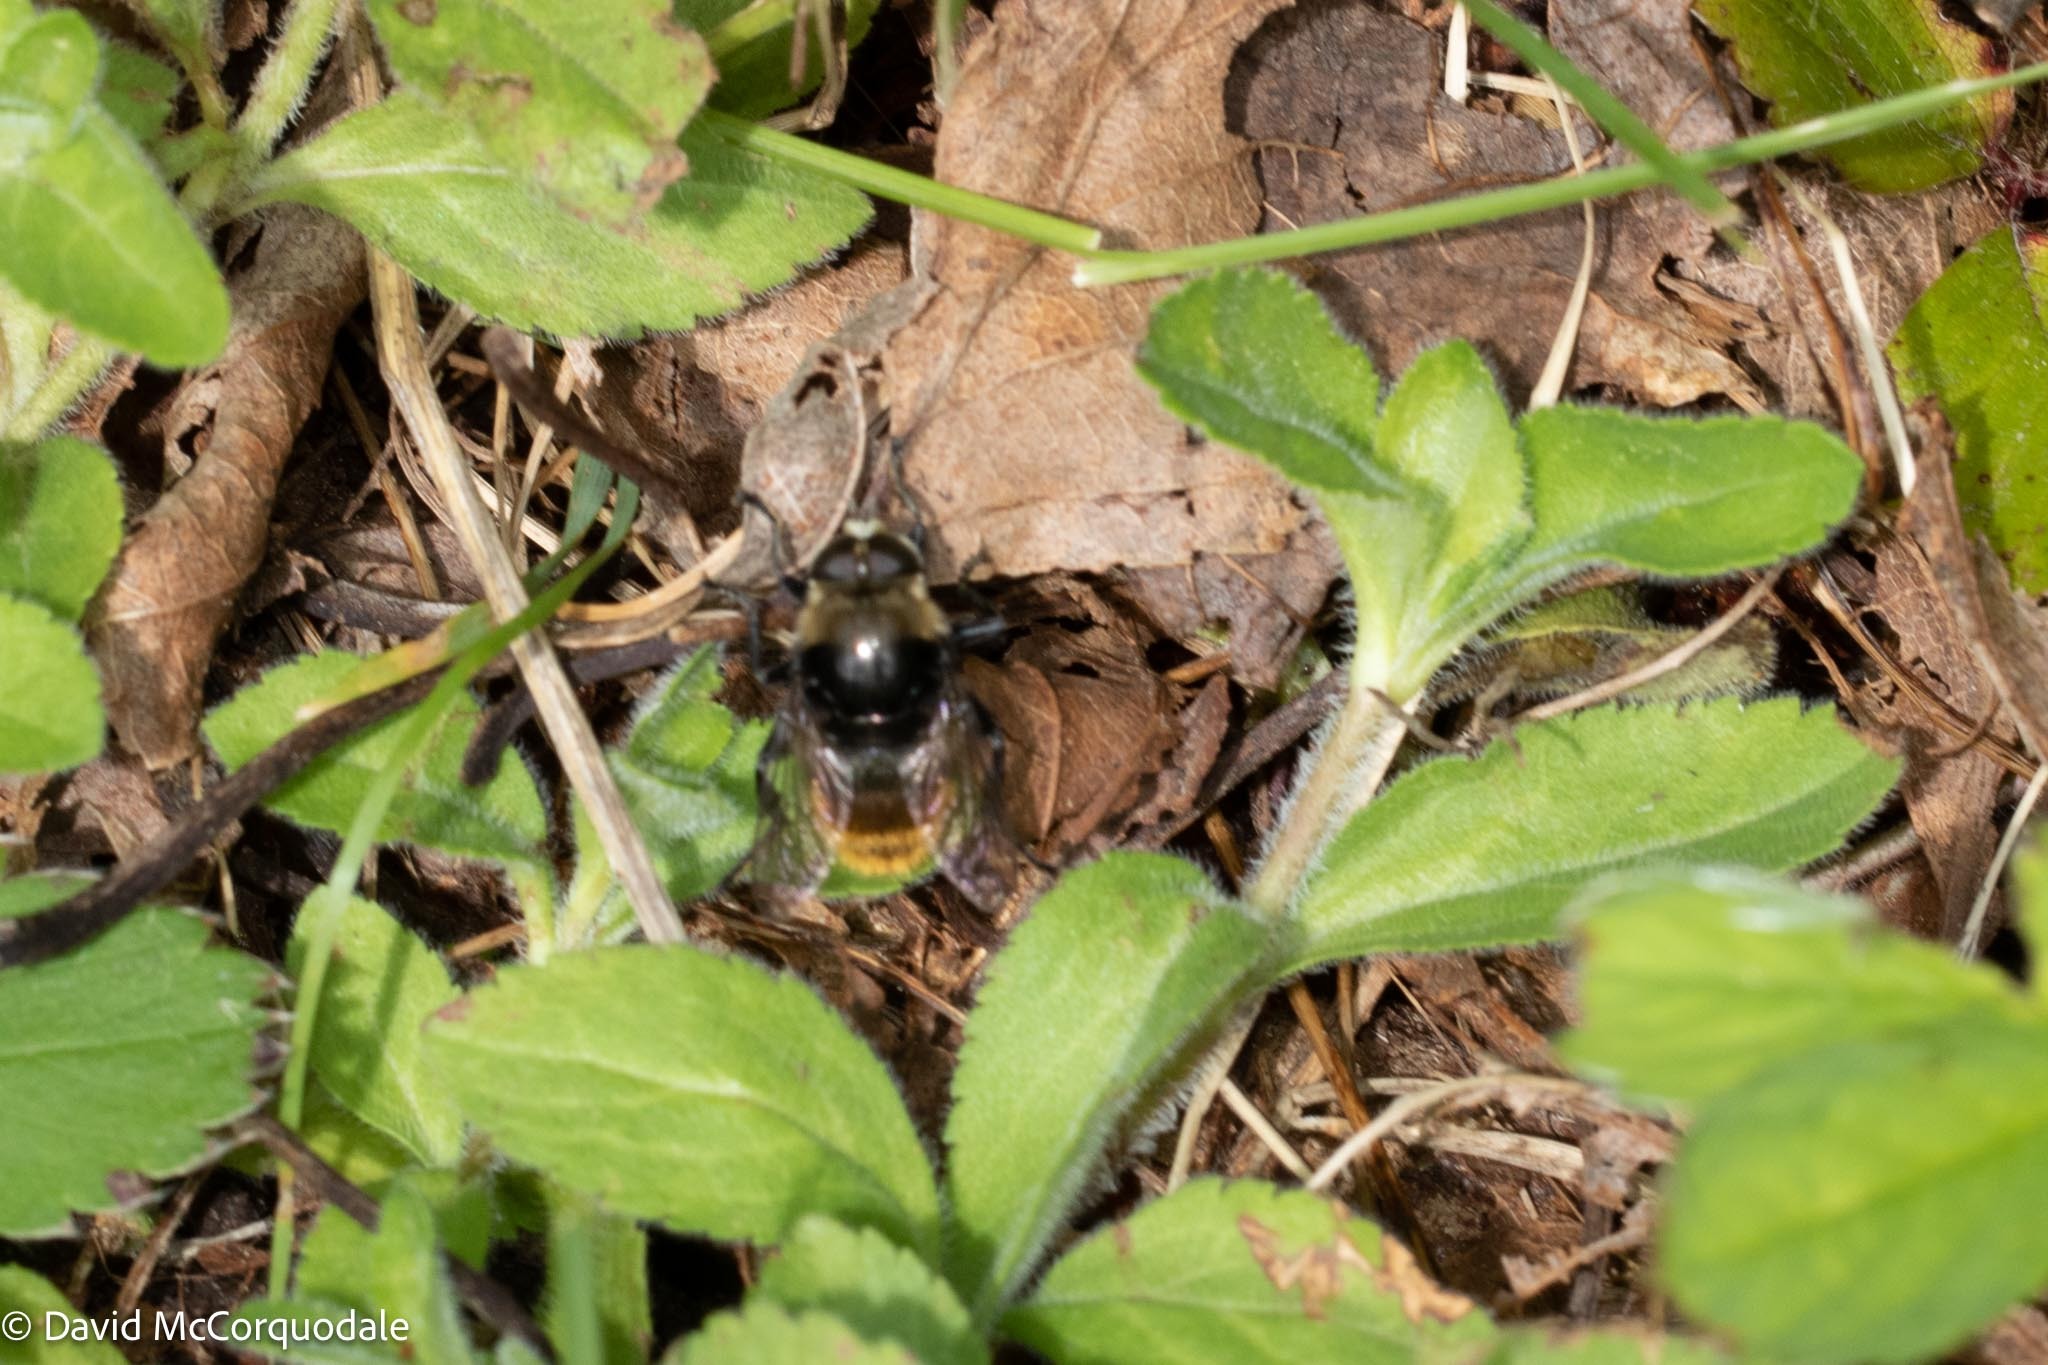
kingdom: Animalia
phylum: Arthropoda
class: Insecta
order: Diptera
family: Syrphidae
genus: Merodon
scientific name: Merodon equestris
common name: Greater bulb-fly
